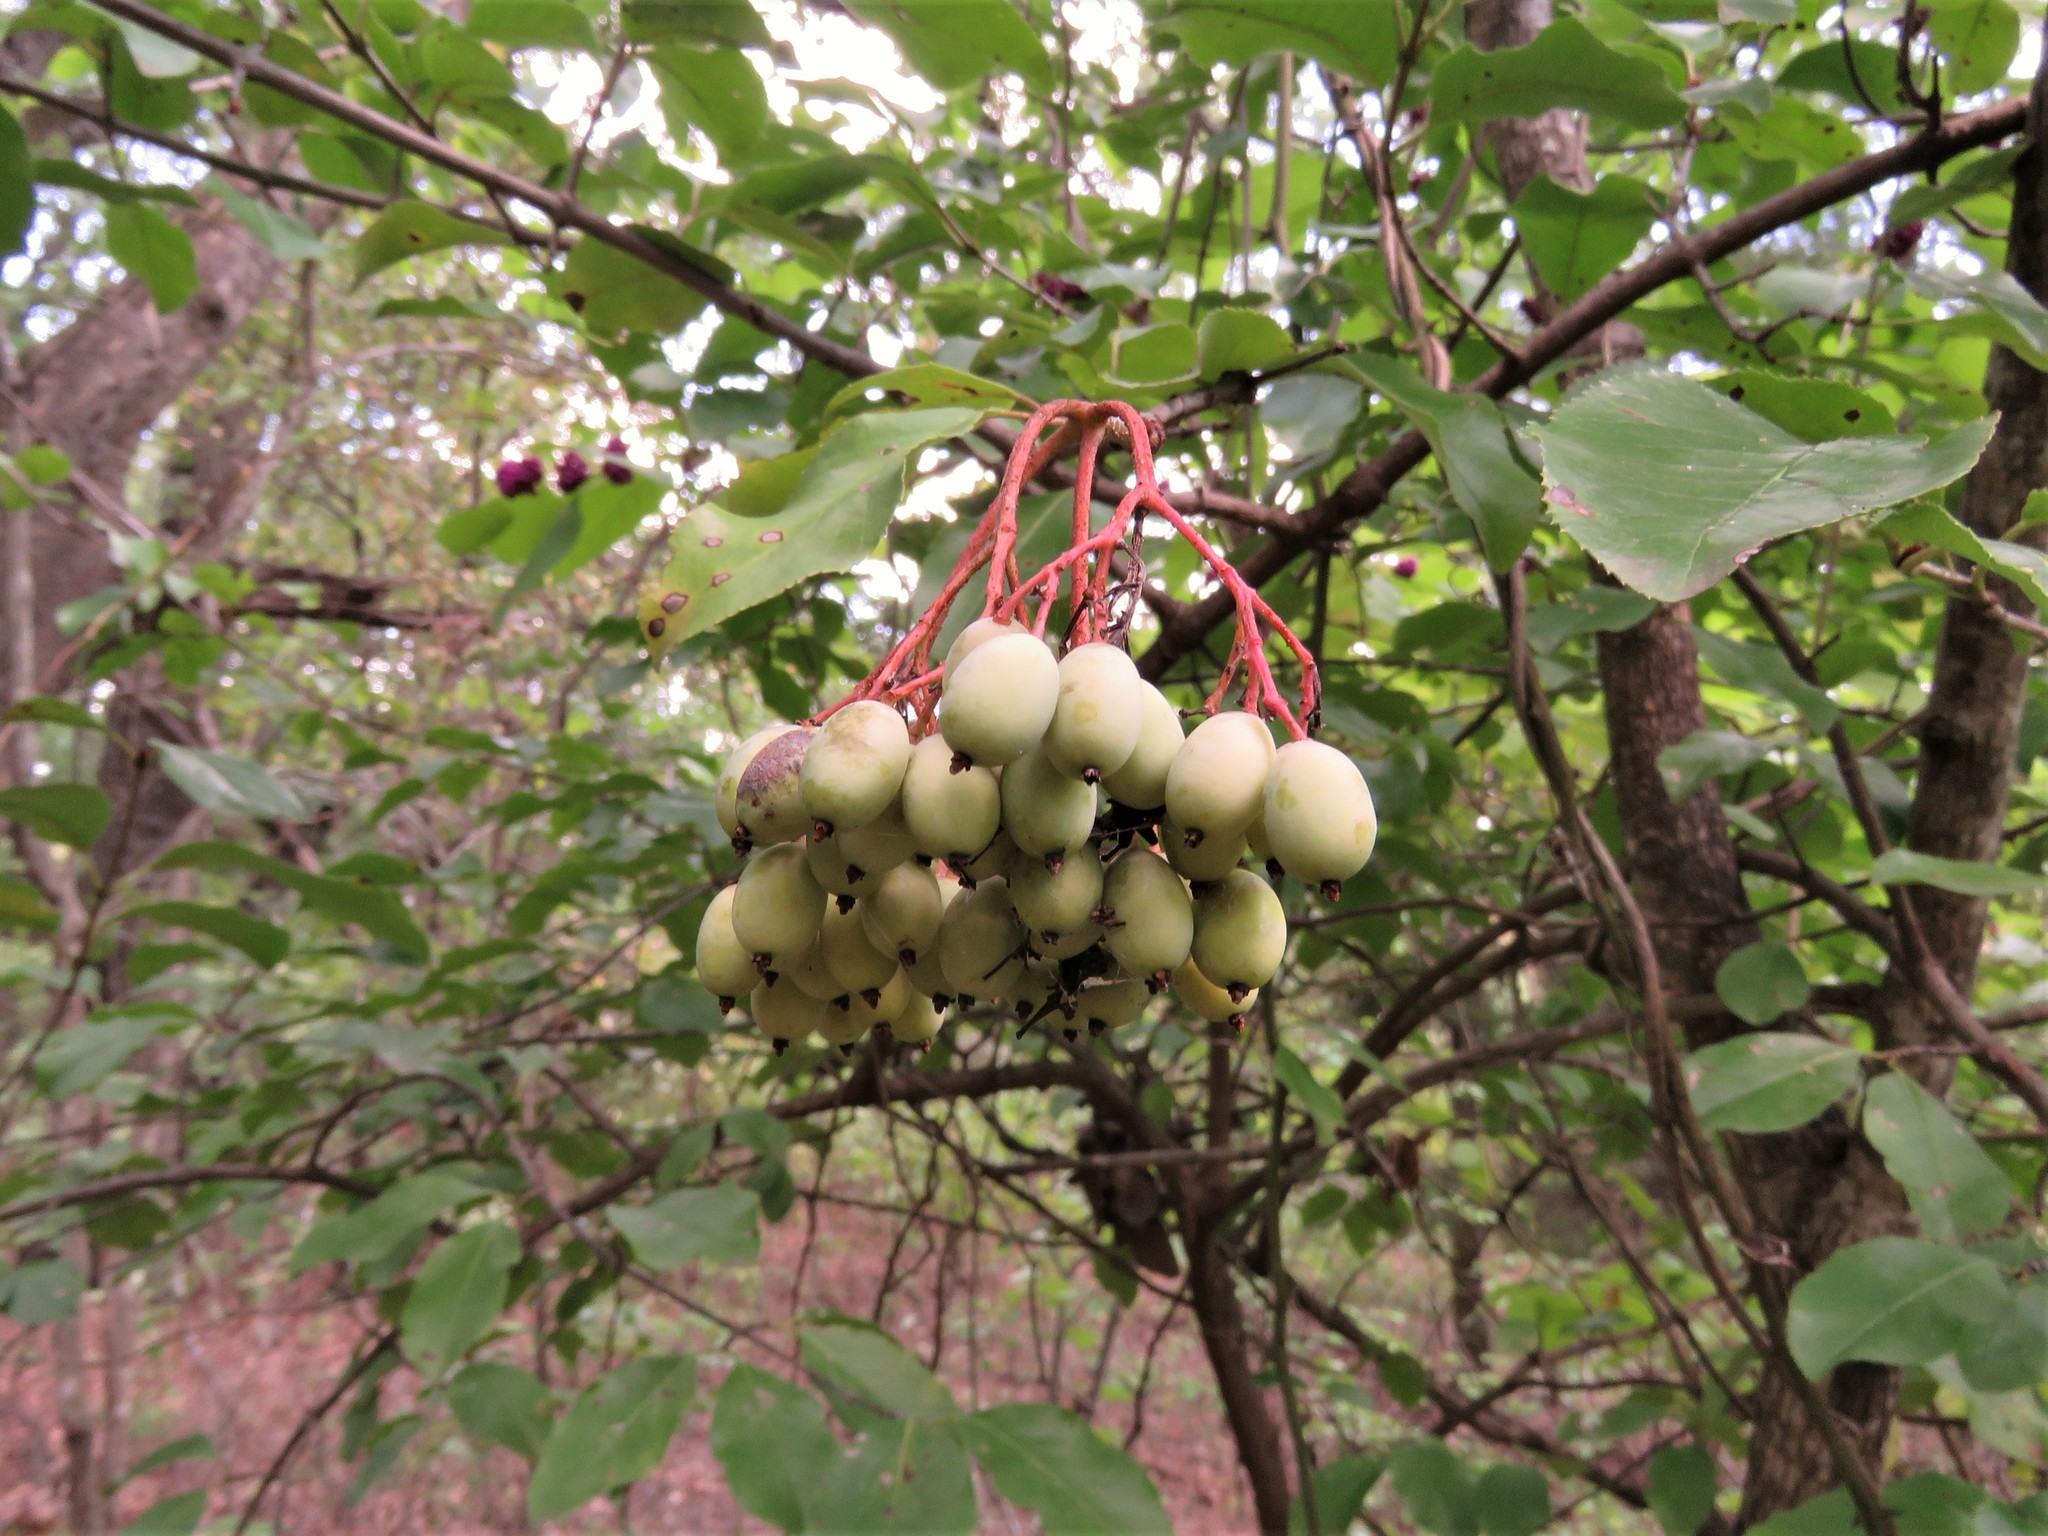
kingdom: Plantae
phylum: Tracheophyta
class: Magnoliopsida
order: Dipsacales
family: Viburnaceae
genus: Viburnum
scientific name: Viburnum rufidulum
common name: Blue haw
